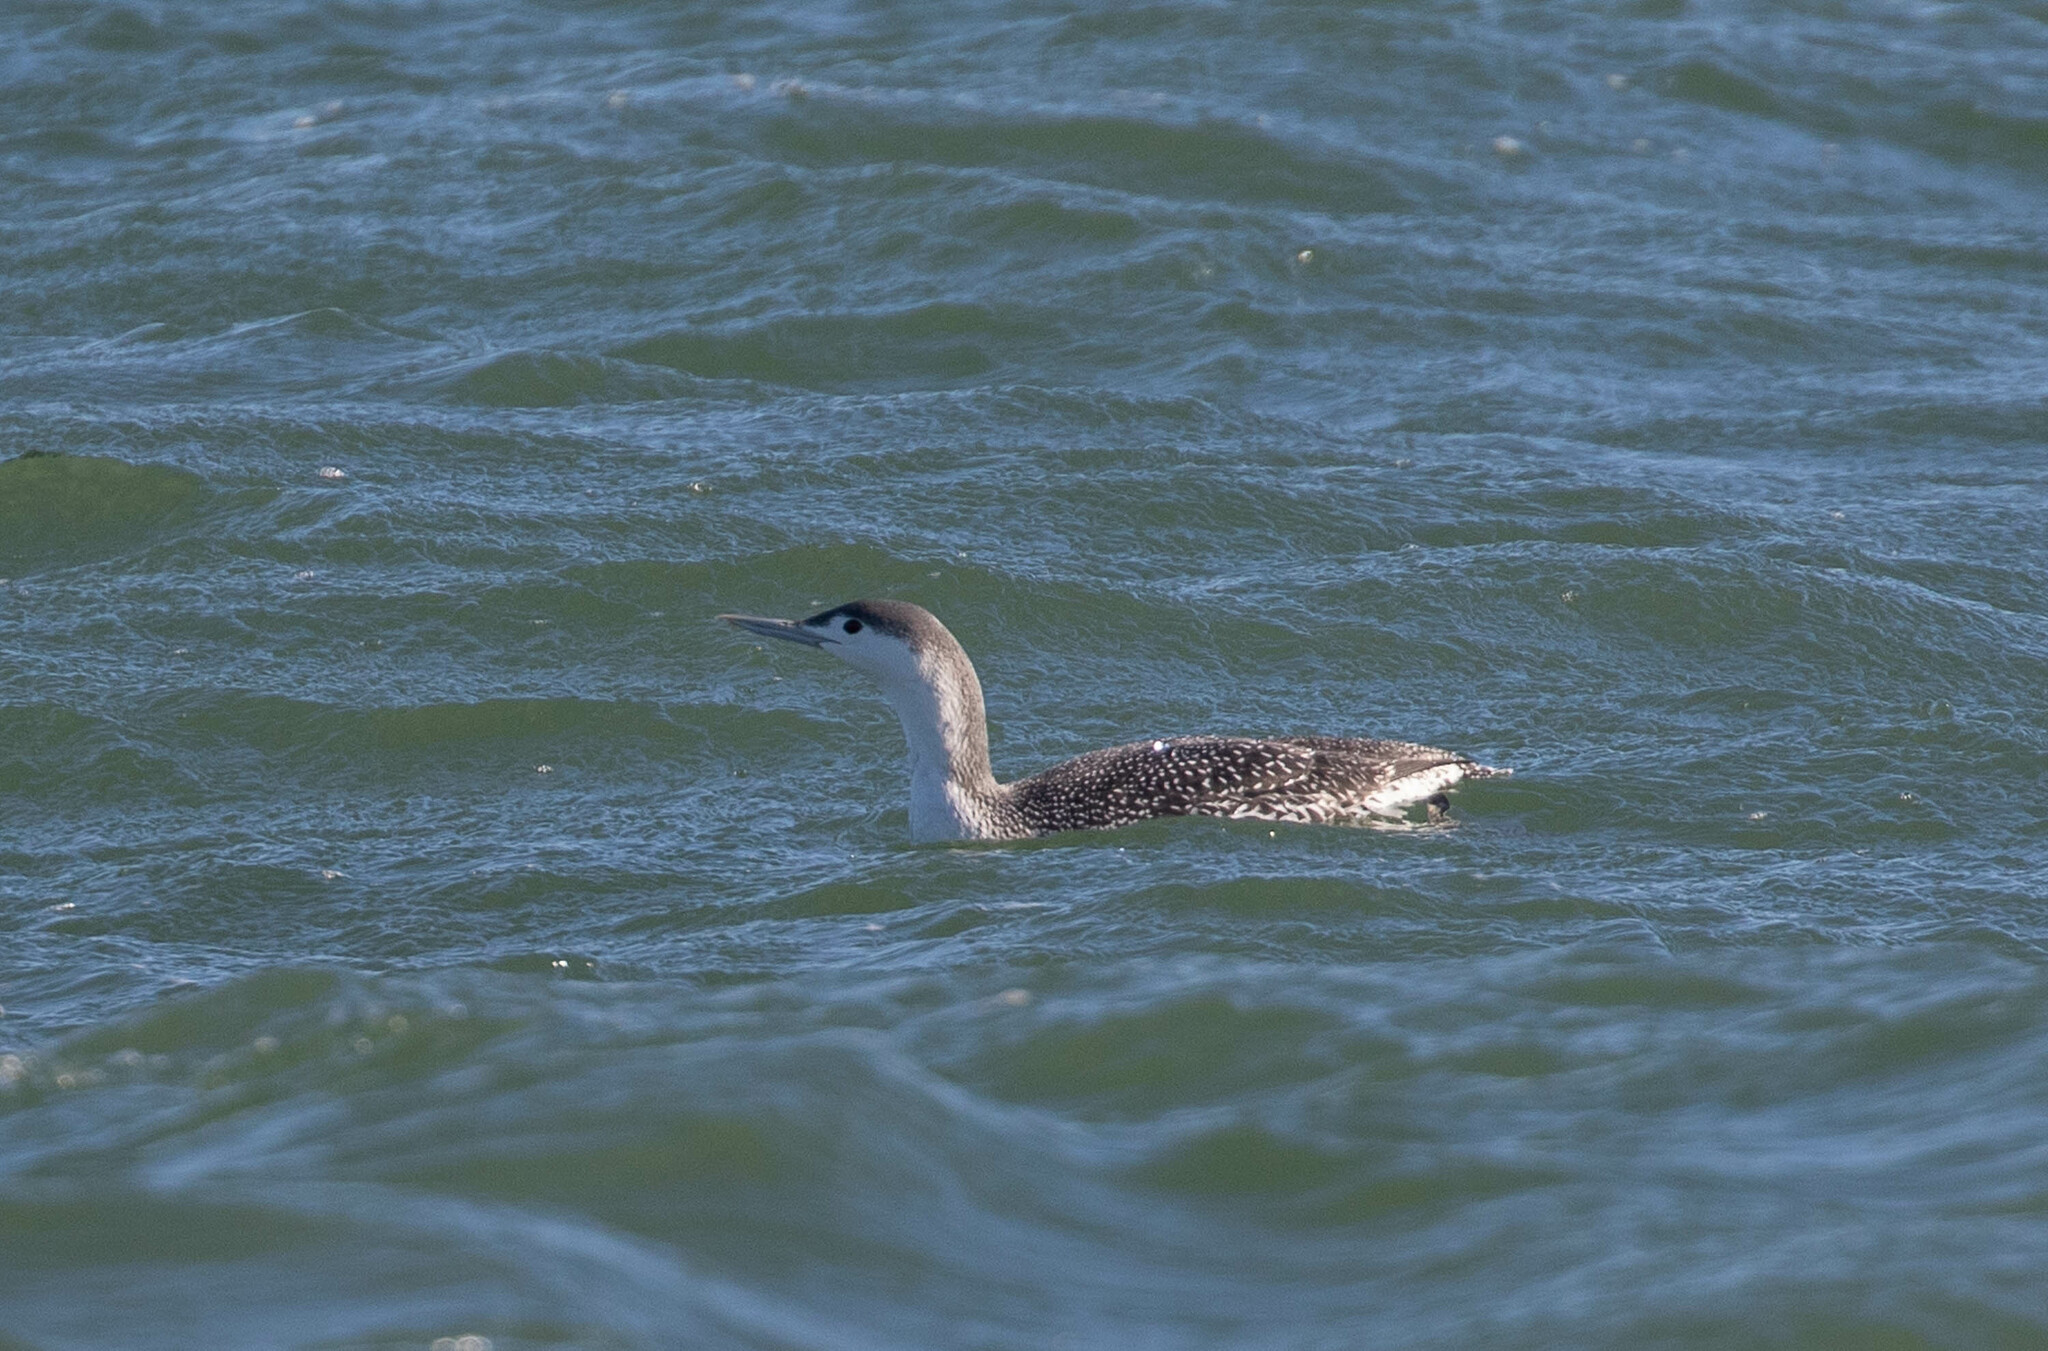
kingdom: Animalia
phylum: Chordata
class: Aves
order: Gaviiformes
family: Gaviidae
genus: Gavia
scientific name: Gavia stellata
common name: Red-throated loon
